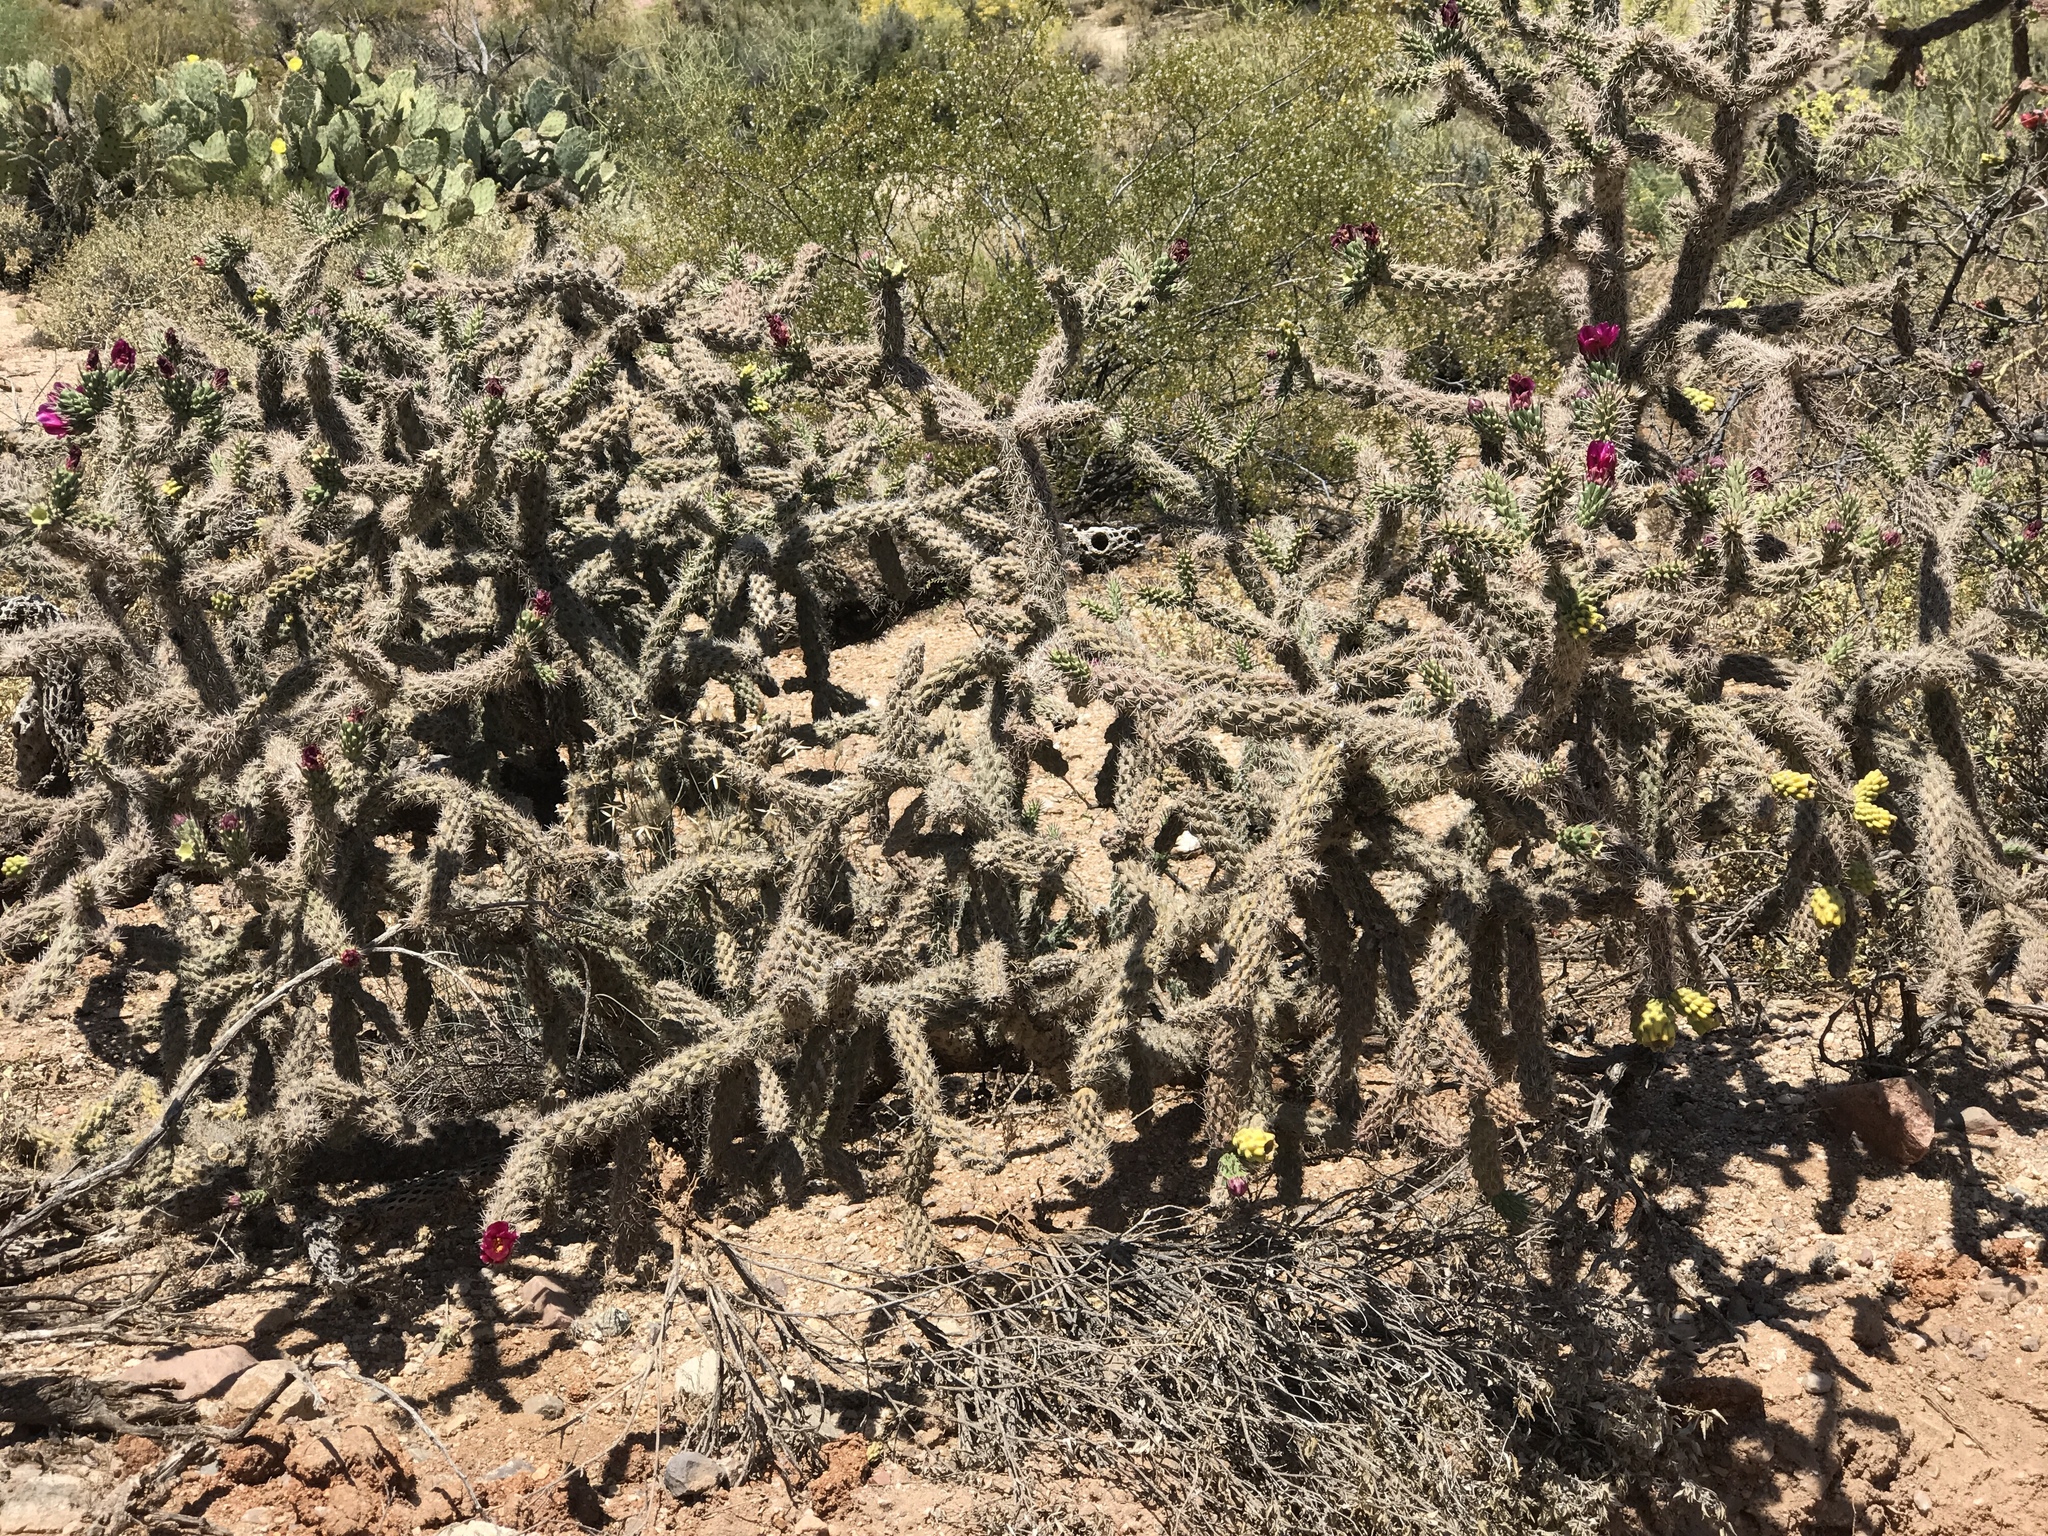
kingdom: Plantae
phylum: Tracheophyta
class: Magnoliopsida
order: Caryophyllales
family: Cactaceae
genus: Cylindropuntia
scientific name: Cylindropuntia imbricata
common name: Candelabrum cactus
